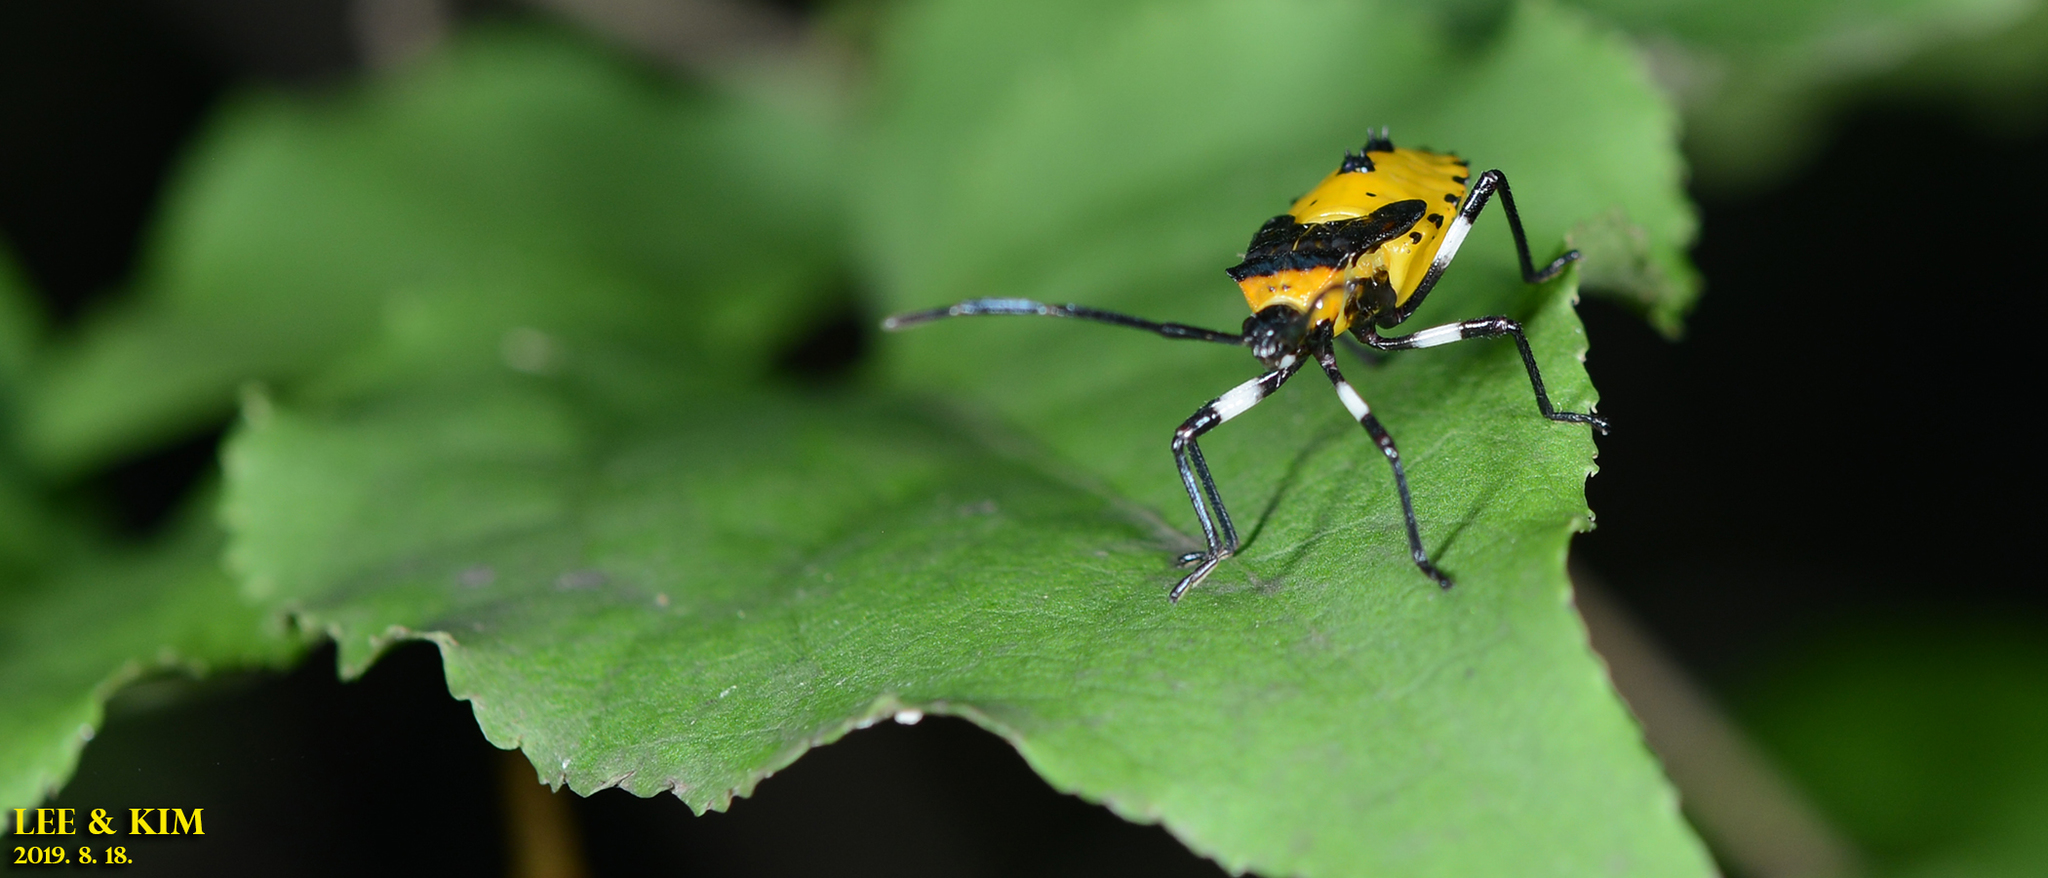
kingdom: Animalia
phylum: Arthropoda
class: Insecta
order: Hemiptera
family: Coreidae
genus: Plinachtus
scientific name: Plinachtus bicoloripes
